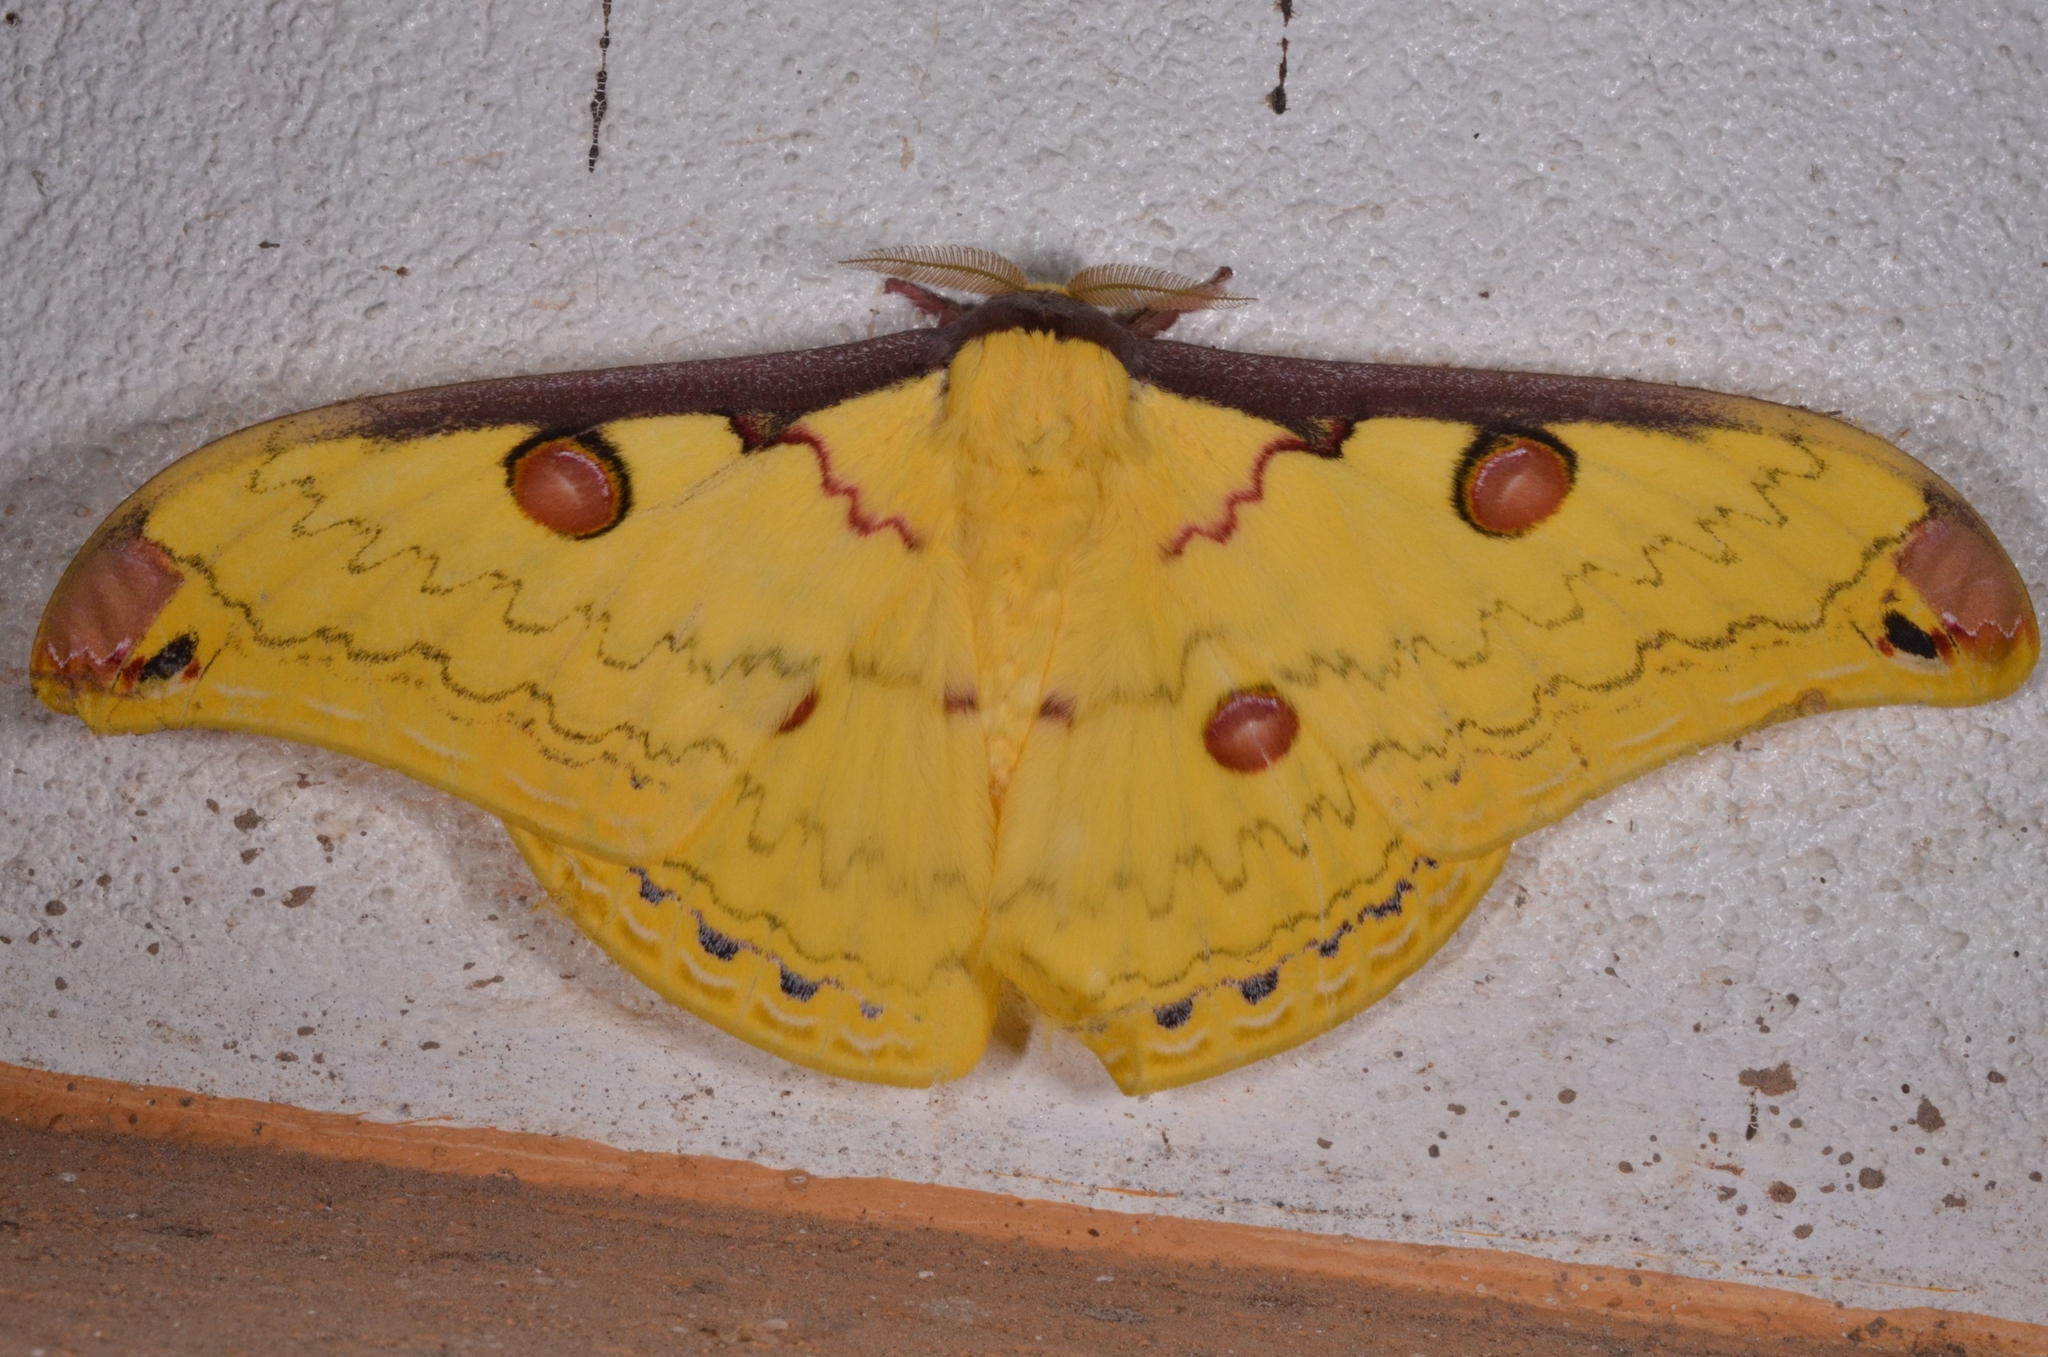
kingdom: Animalia
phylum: Arthropoda
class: Insecta
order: Lepidoptera
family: Saturniidae
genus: Loepa
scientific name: Loepa miranda
